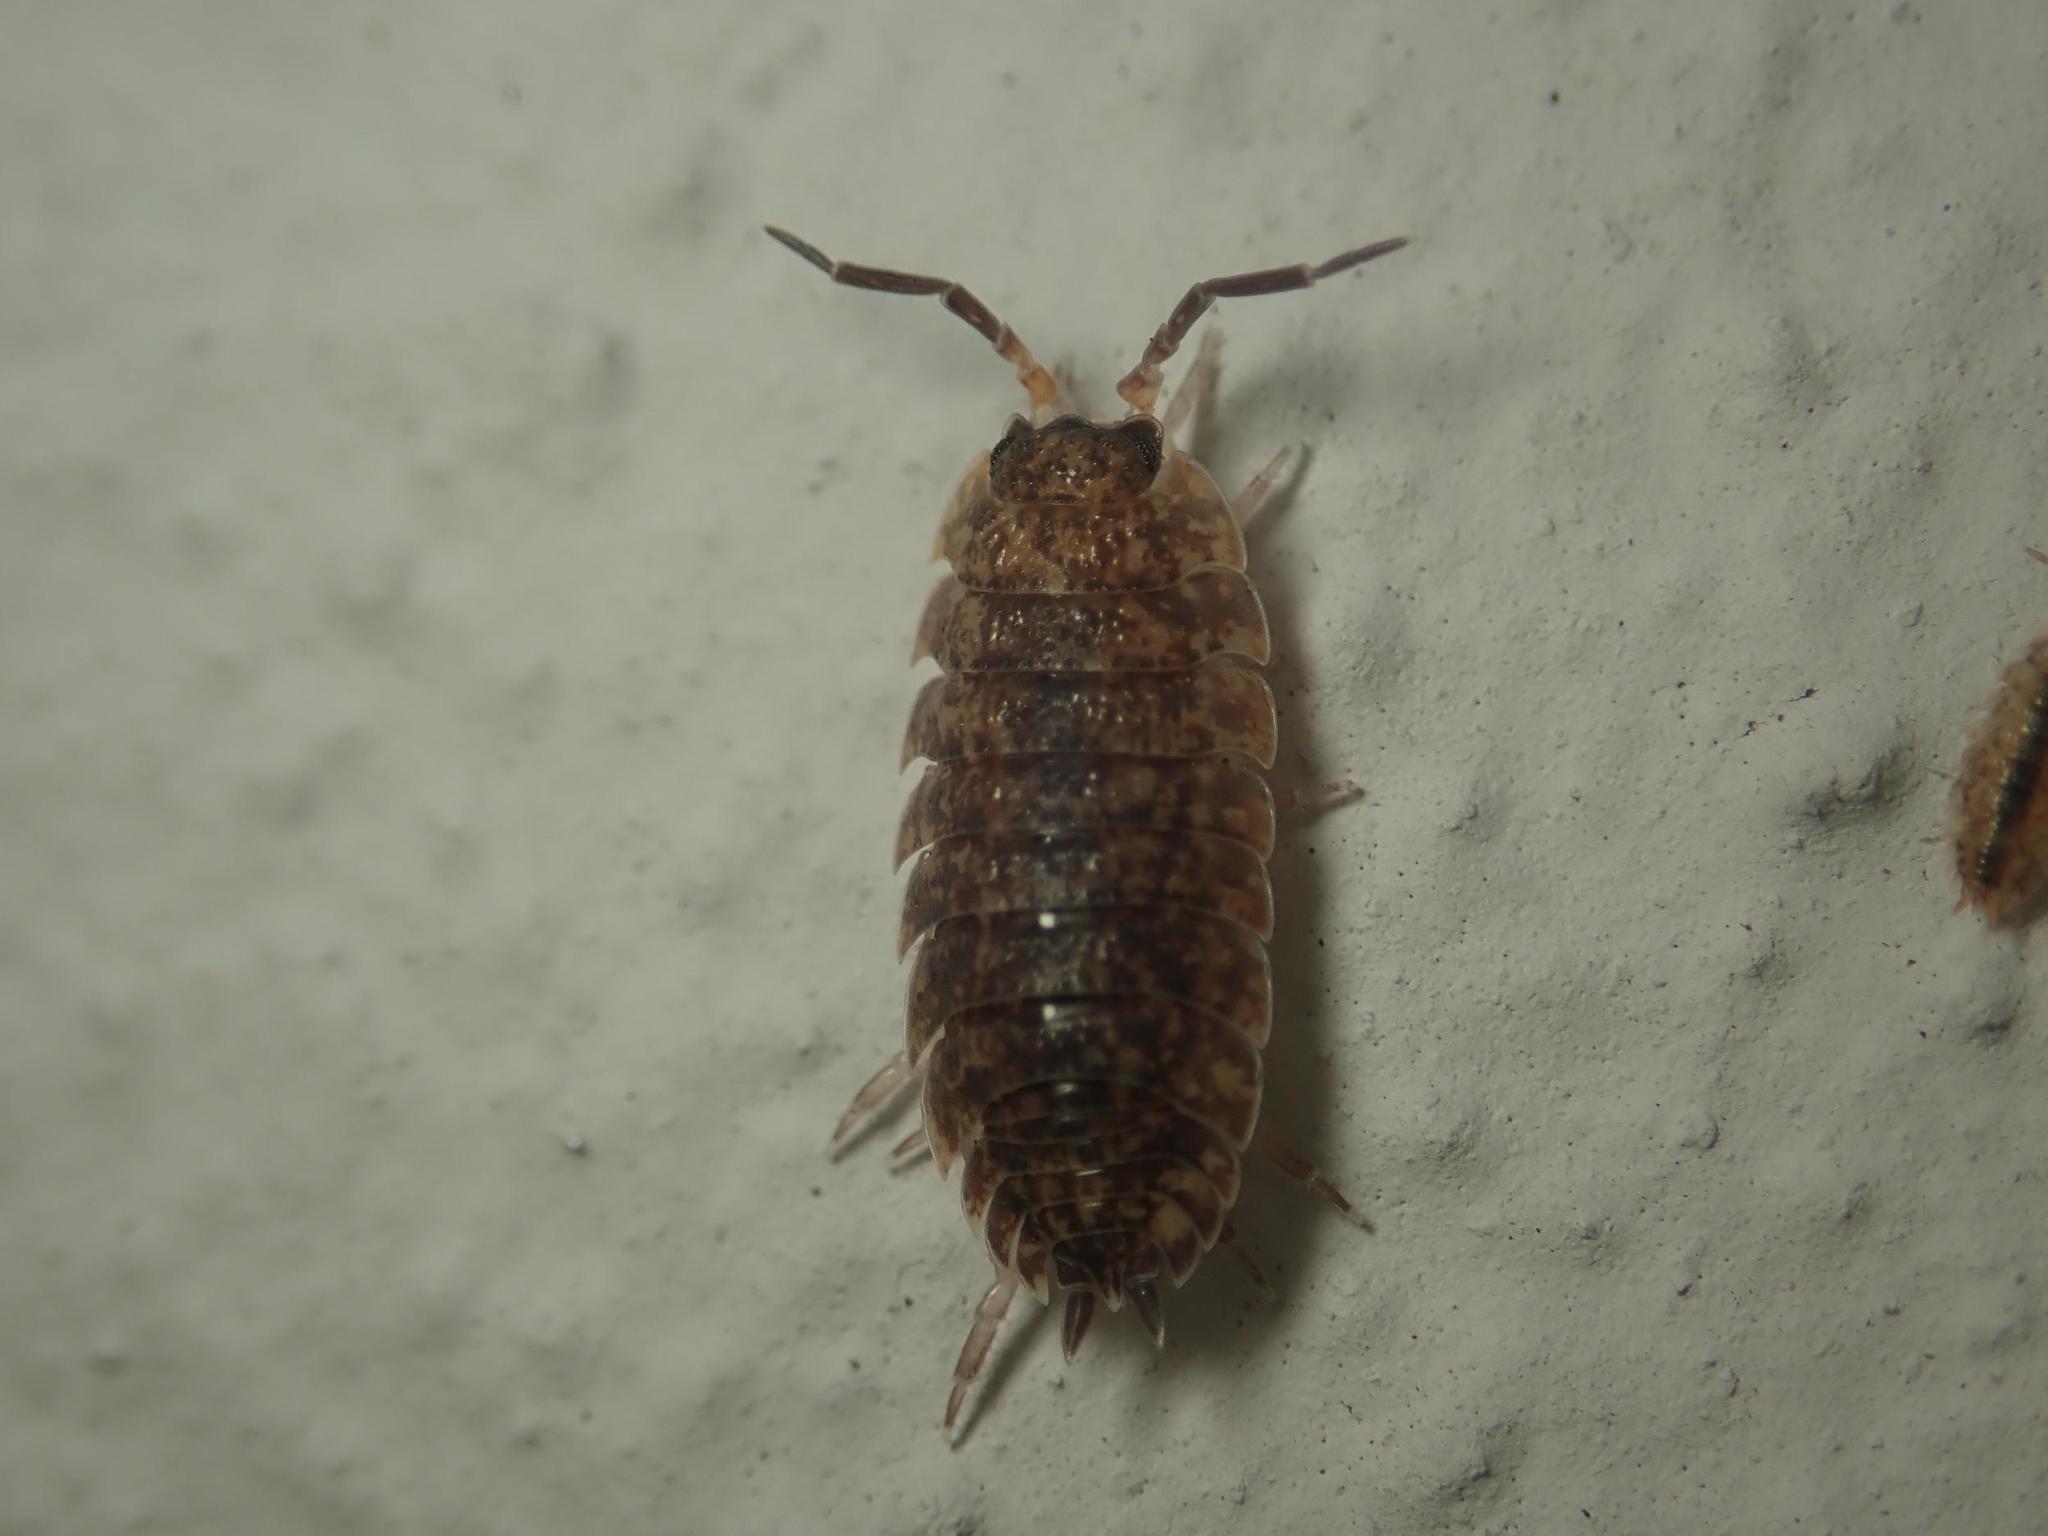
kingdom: Animalia
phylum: Arthropoda
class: Malacostraca
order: Isopoda
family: Porcellionidae
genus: Porcellio
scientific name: Porcellio scaber
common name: Common rough woodlouse
